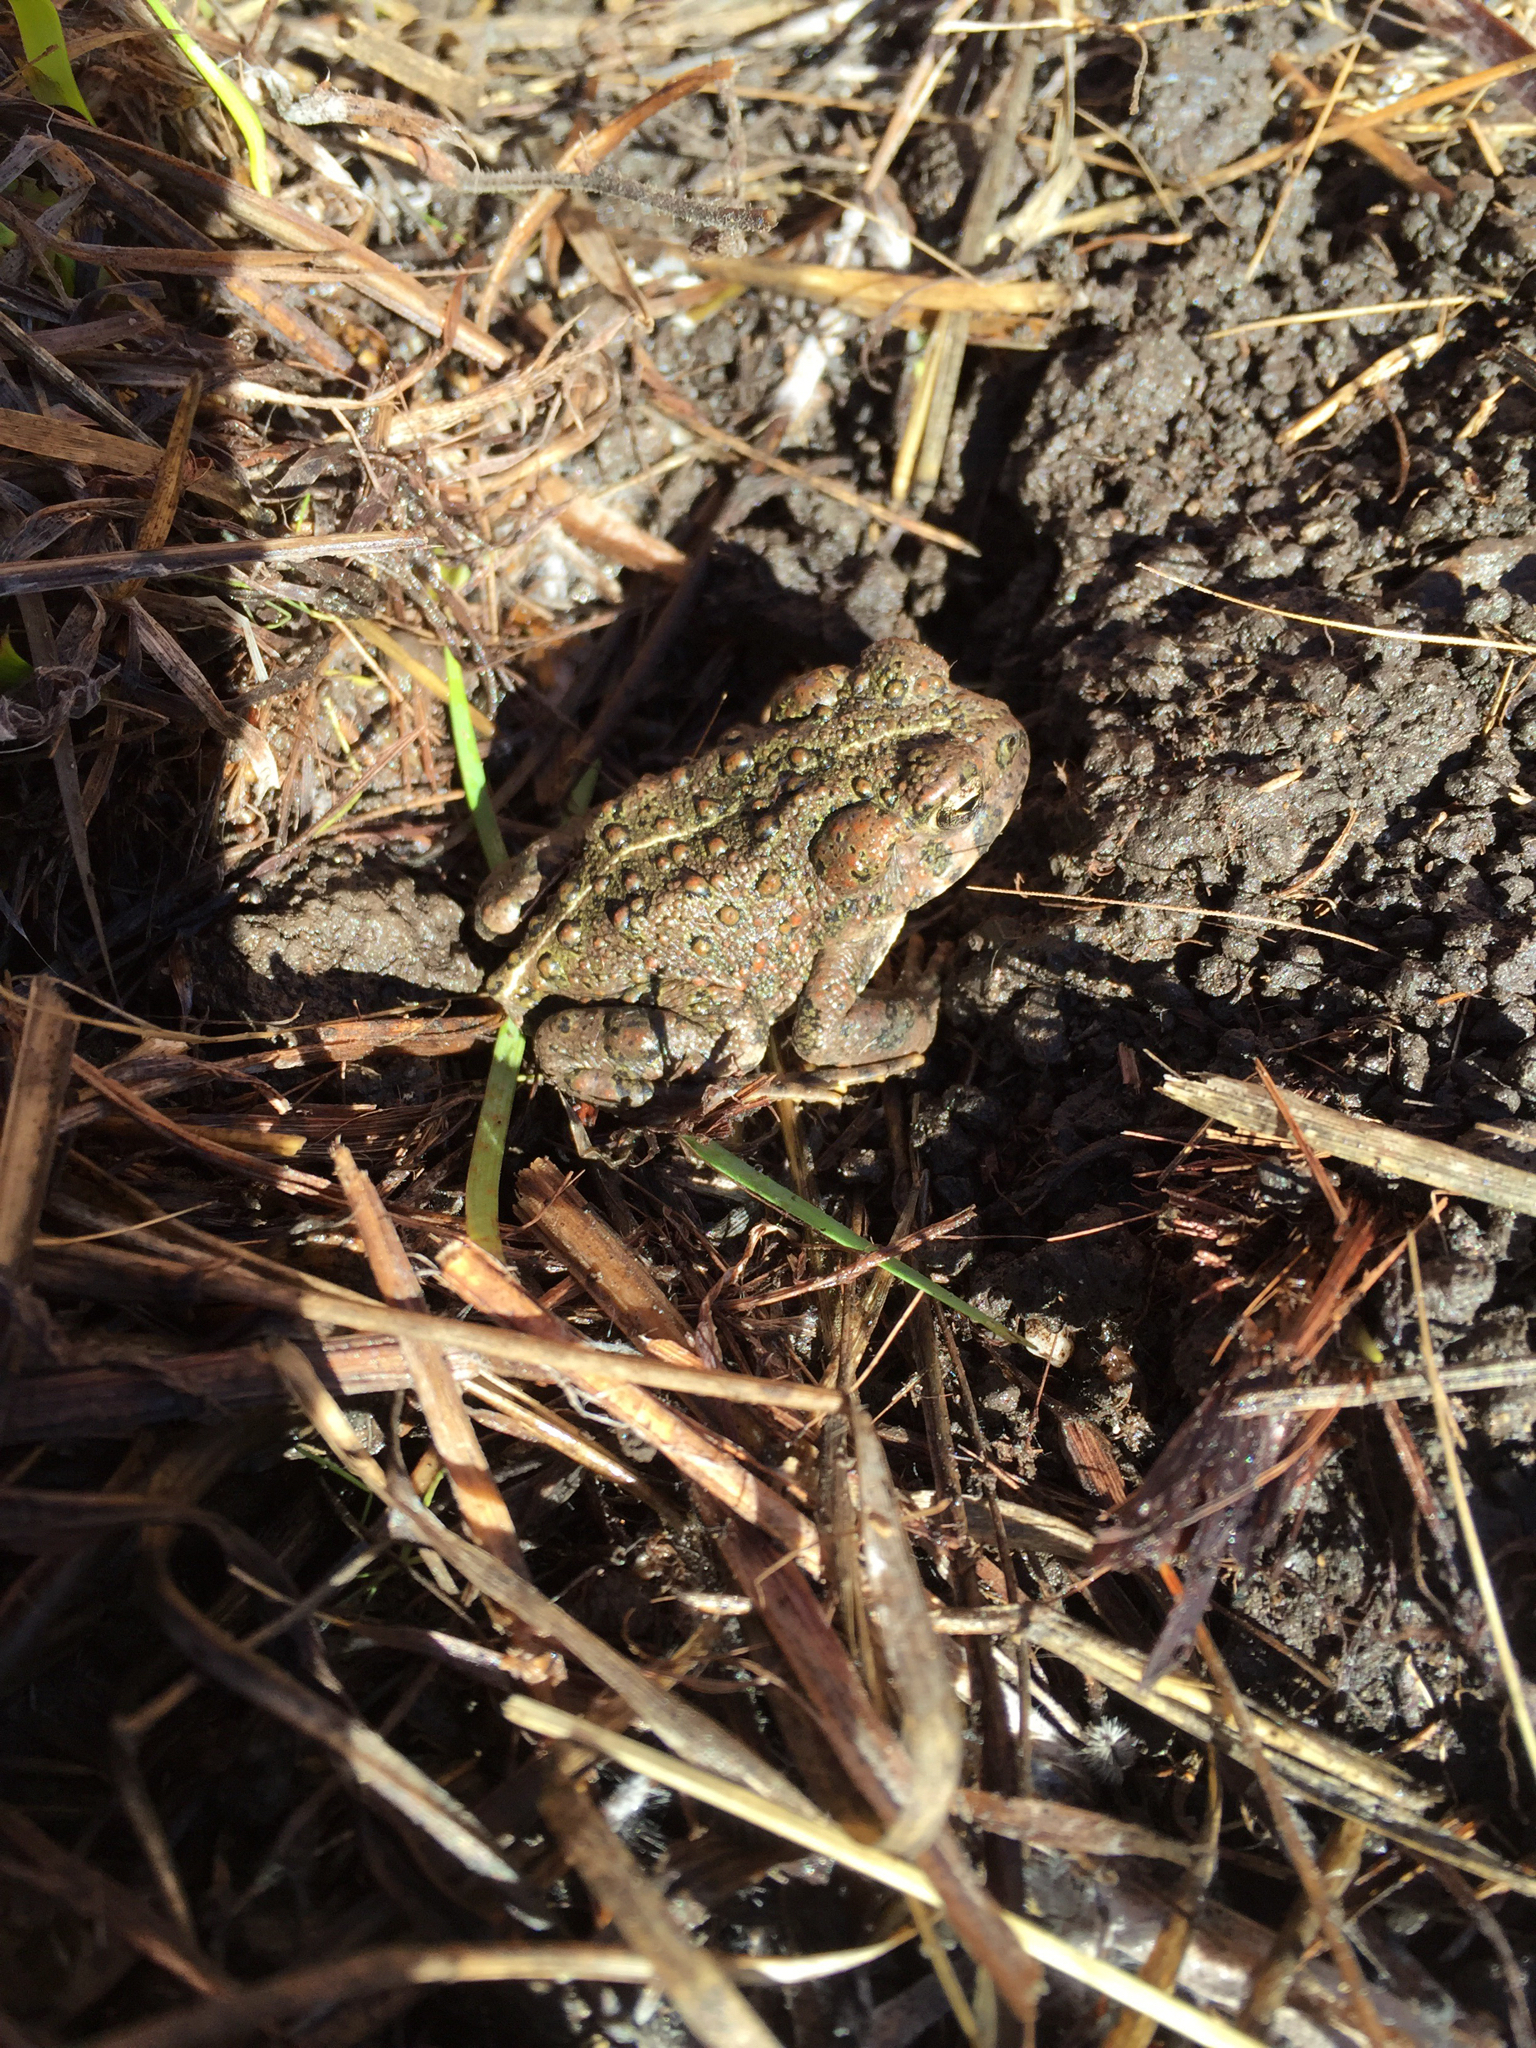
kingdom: Animalia
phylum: Chordata
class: Amphibia
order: Anura
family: Bufonidae
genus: Anaxyrus
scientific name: Anaxyrus boreas
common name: Western toad
